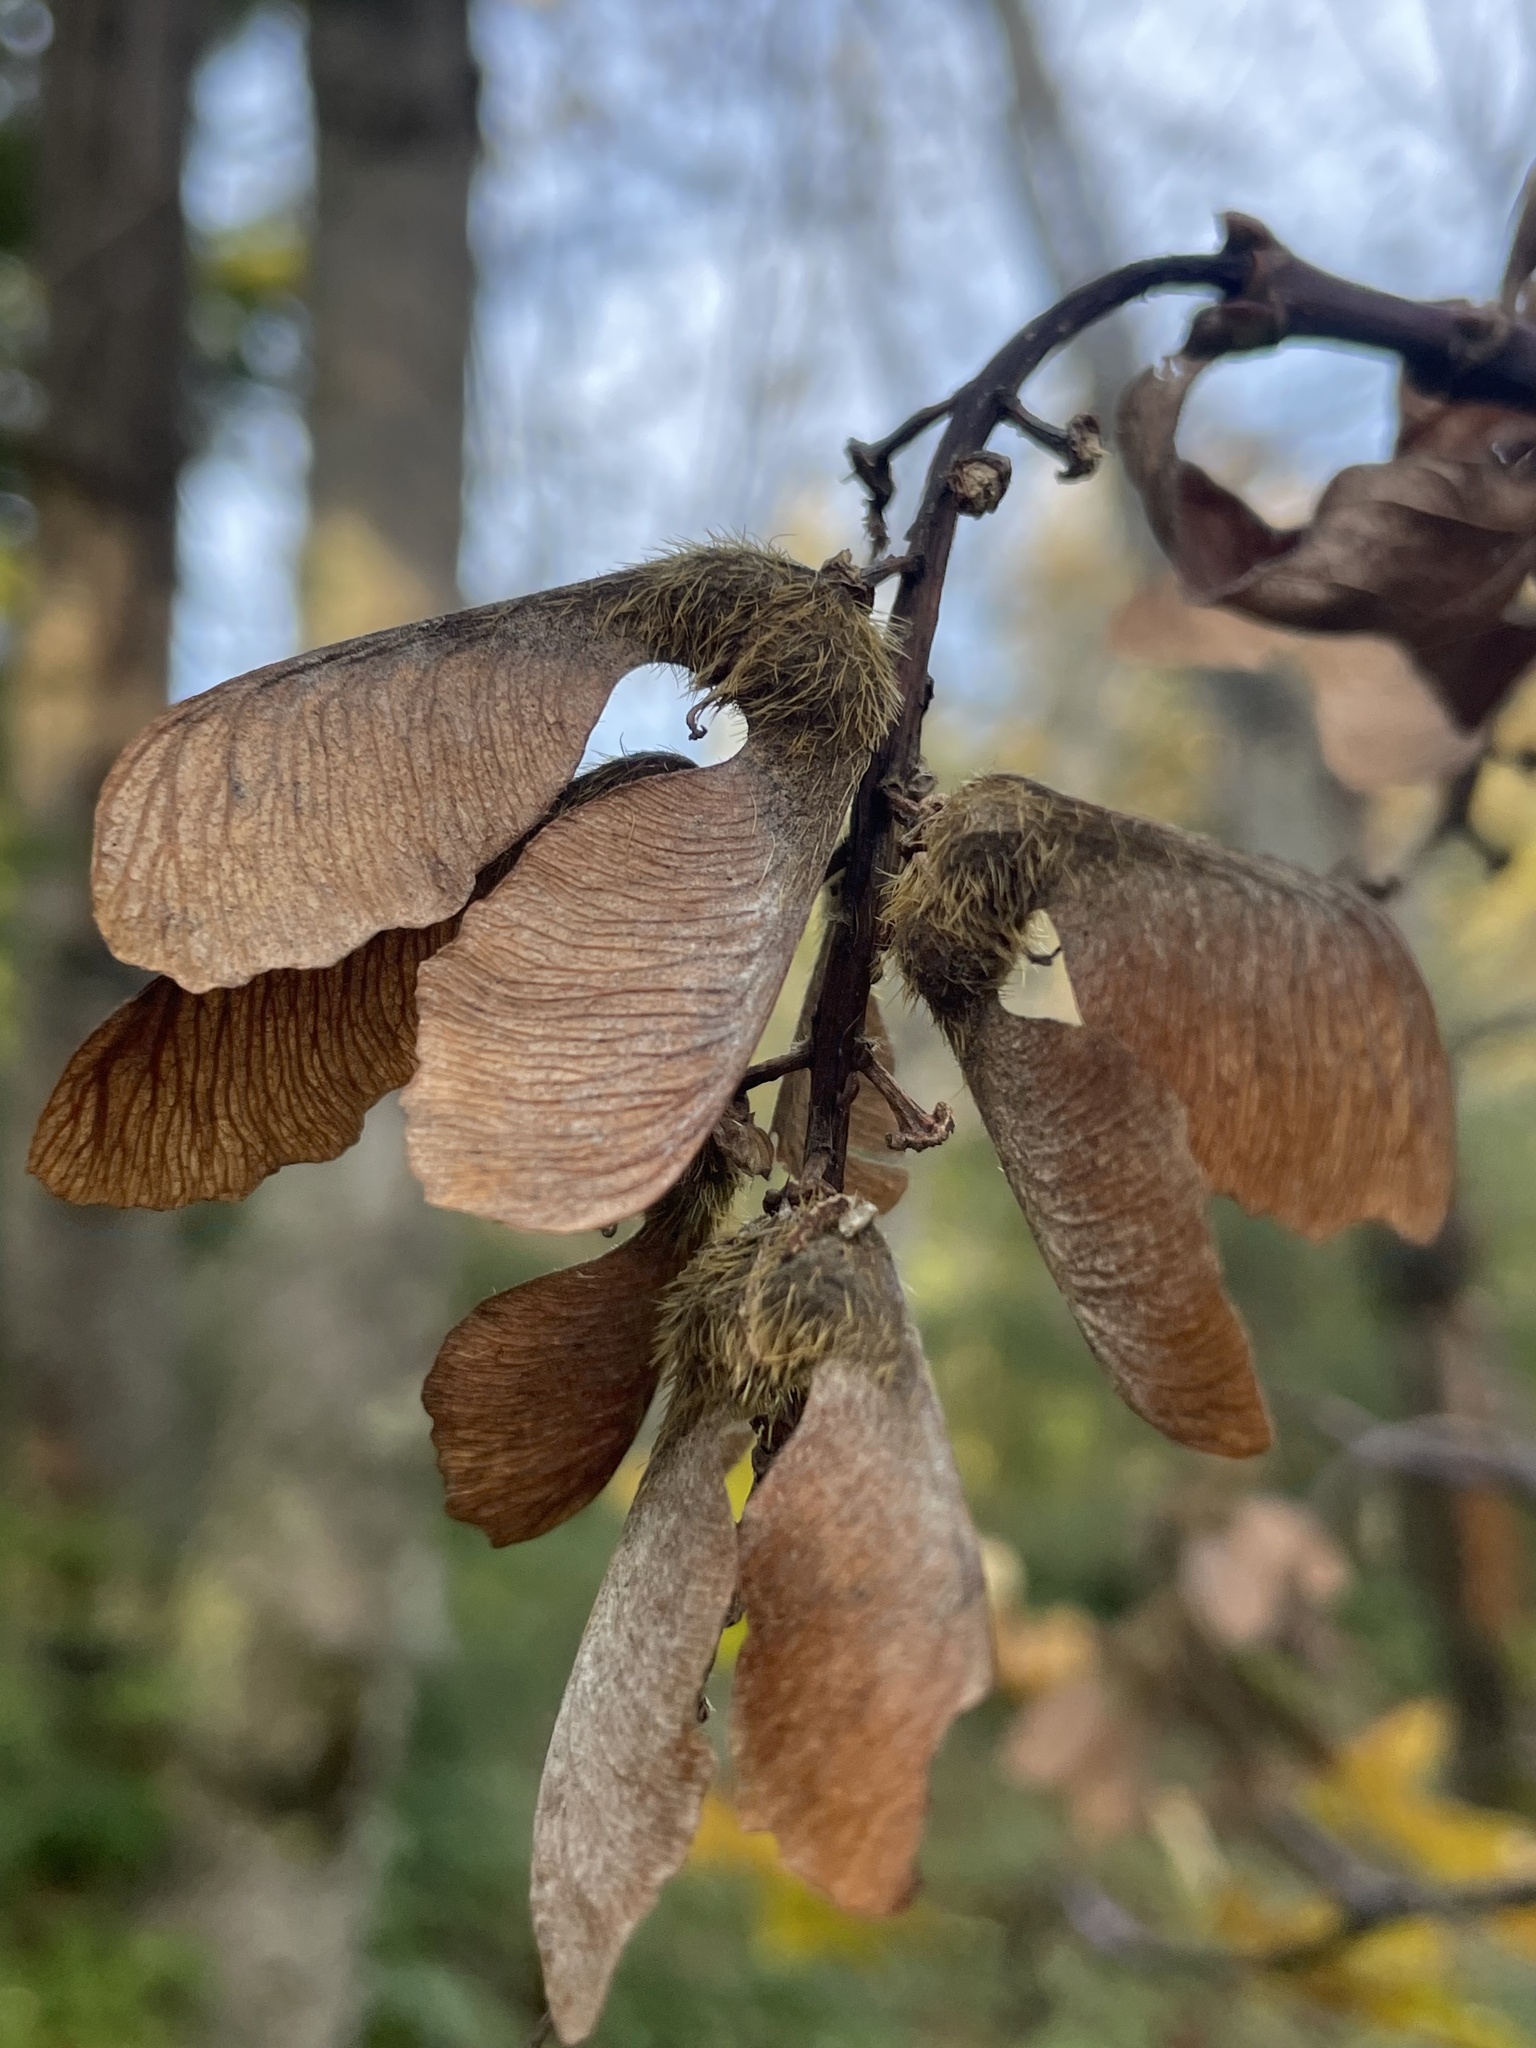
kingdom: Plantae
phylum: Tracheophyta
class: Magnoliopsida
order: Sapindales
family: Sapindaceae
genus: Acer
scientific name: Acer macrophyllum
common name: Oregon maple
